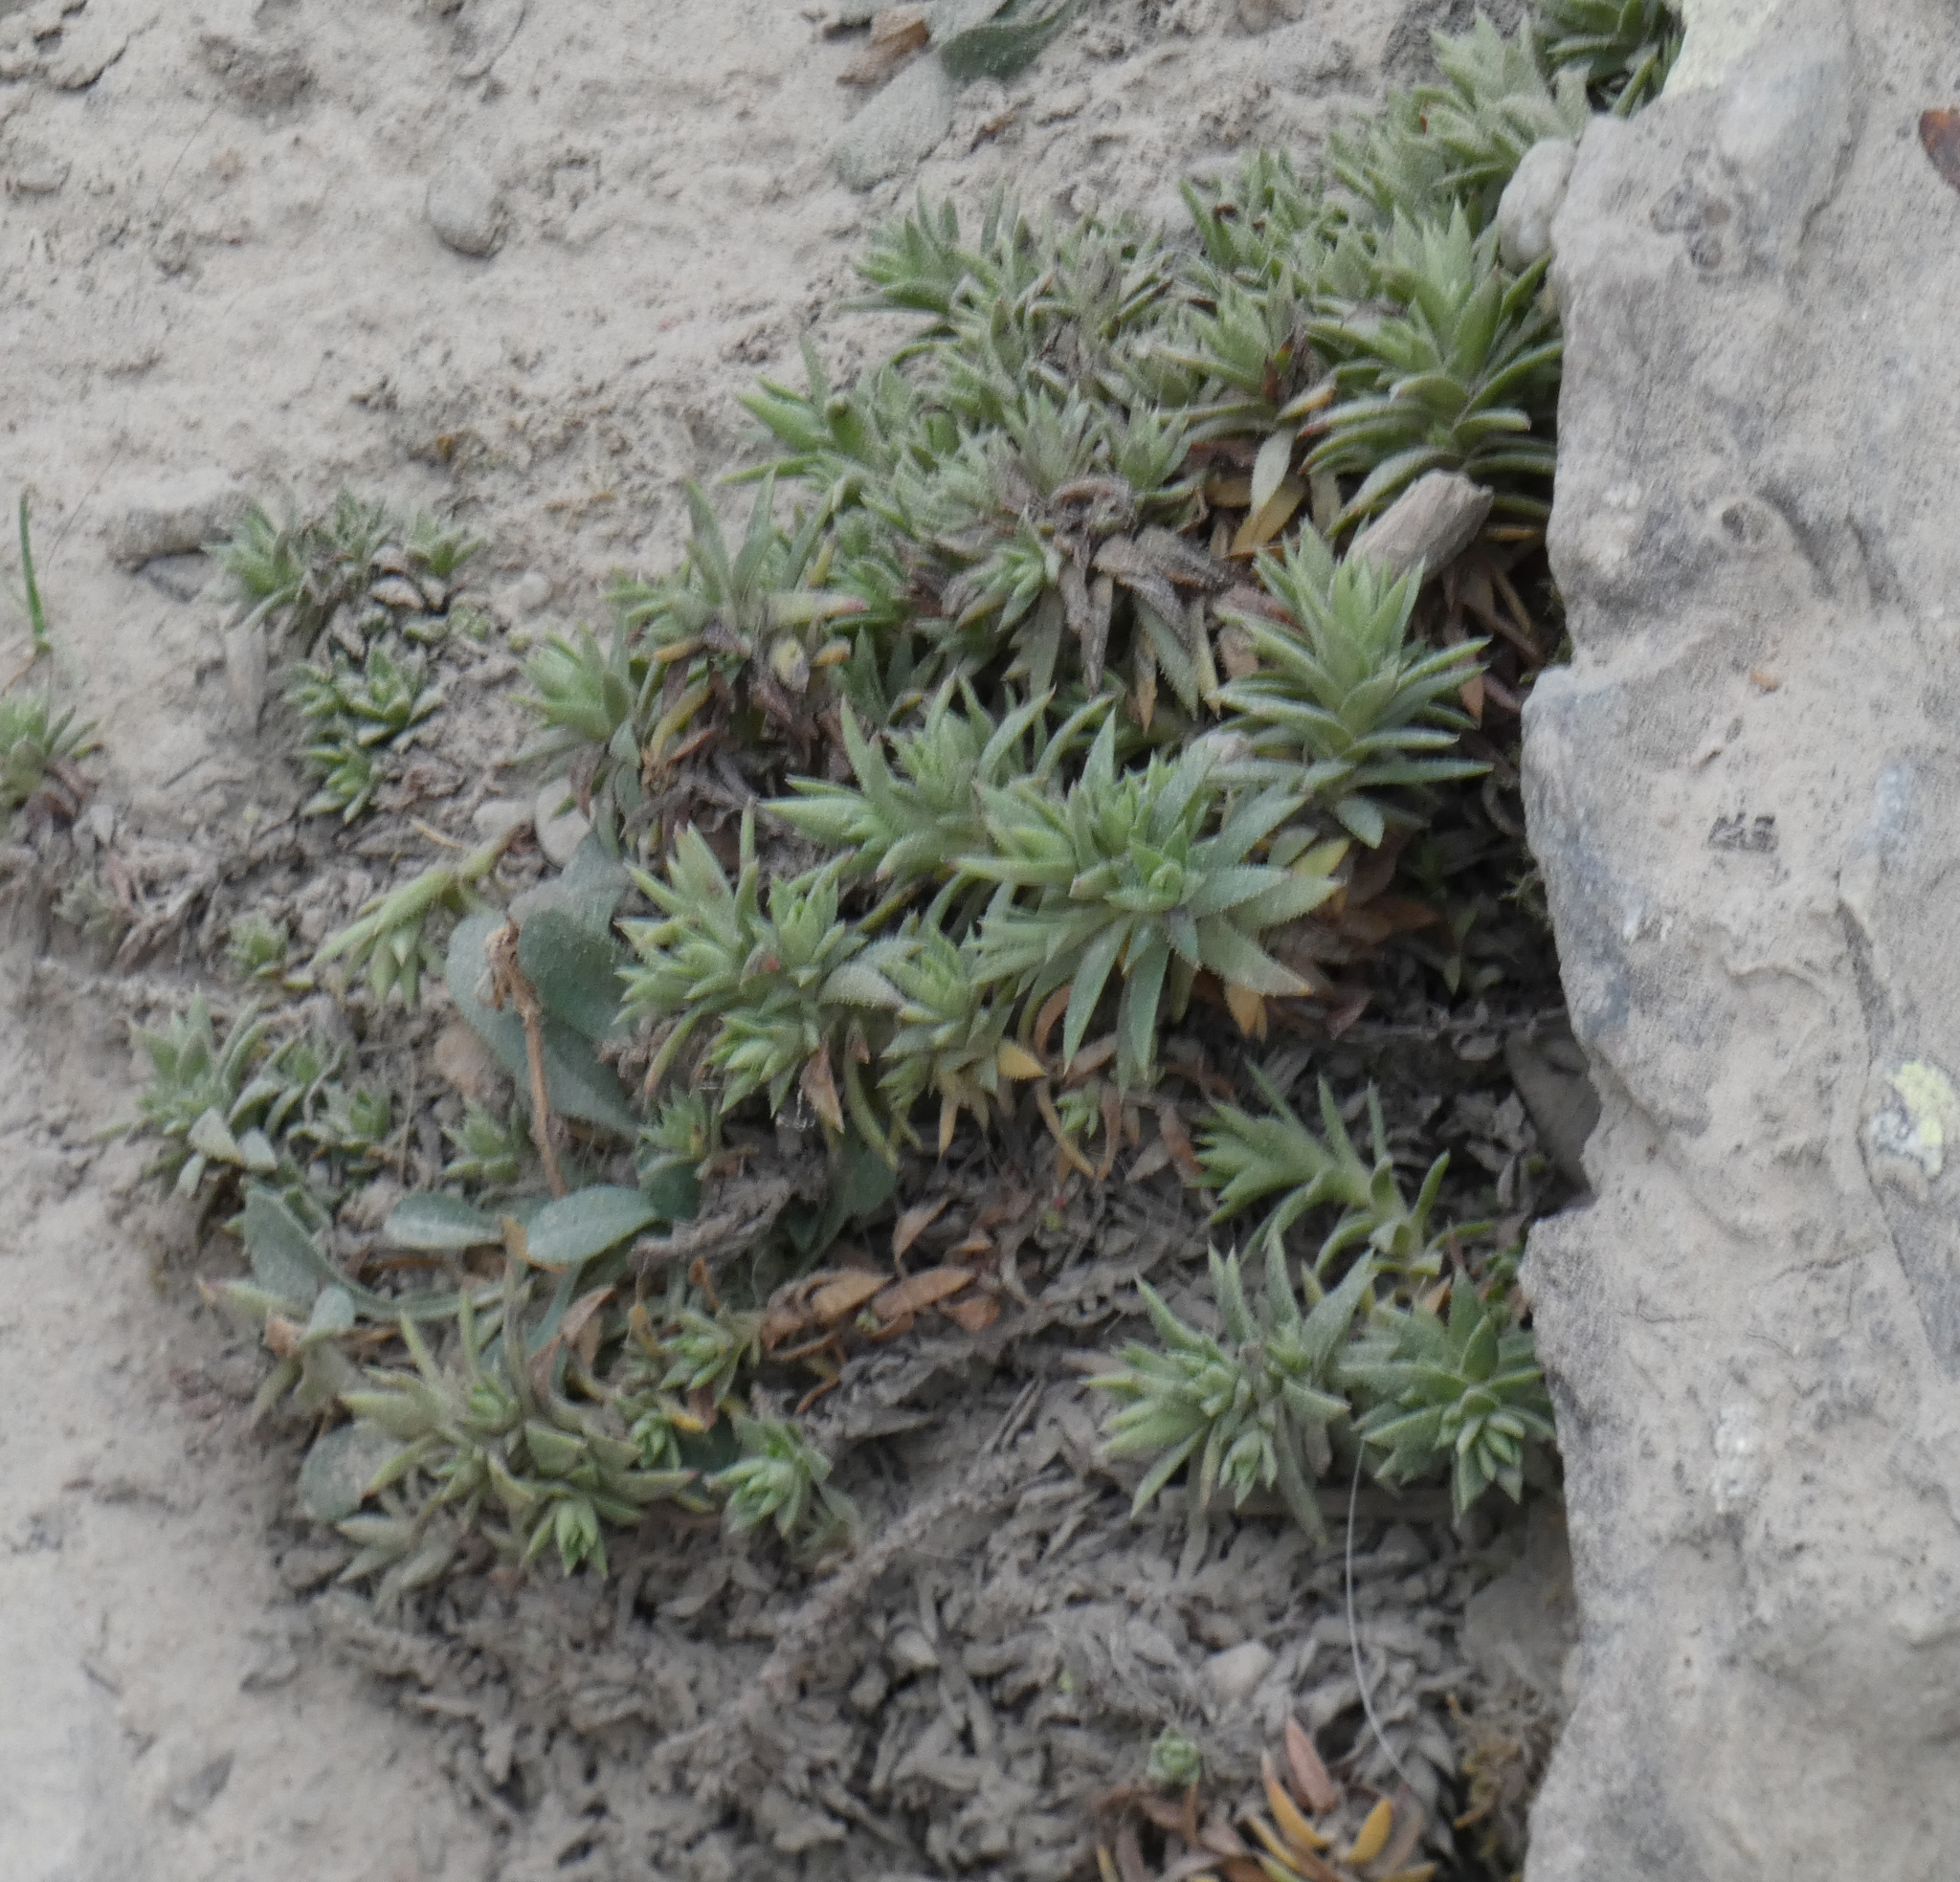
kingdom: Plantae
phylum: Tracheophyta
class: Magnoliopsida
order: Saxifragales
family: Saxifragaceae
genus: Saxifraga
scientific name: Saxifraga bronchialis
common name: Matted saxifrage
